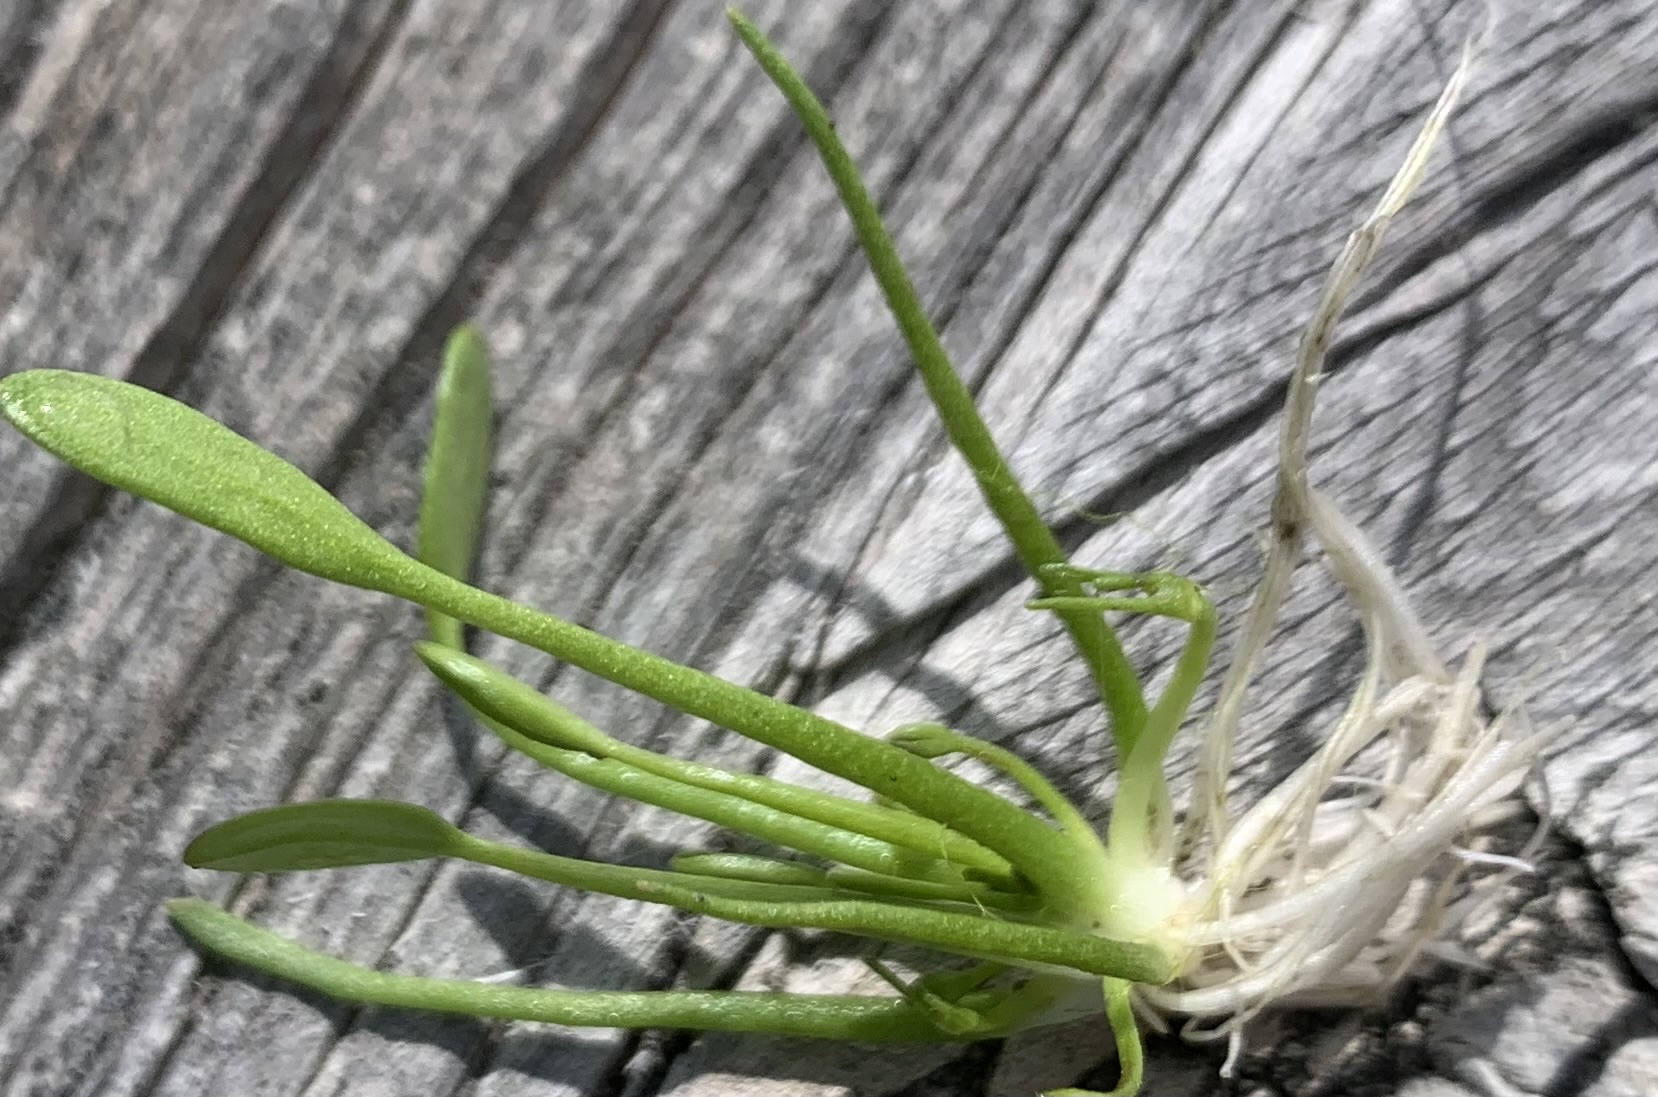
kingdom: Plantae
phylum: Tracheophyta
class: Magnoliopsida
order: Lamiales
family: Scrophulariaceae
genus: Limosella
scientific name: Limosella aquatica
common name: Mudwort
